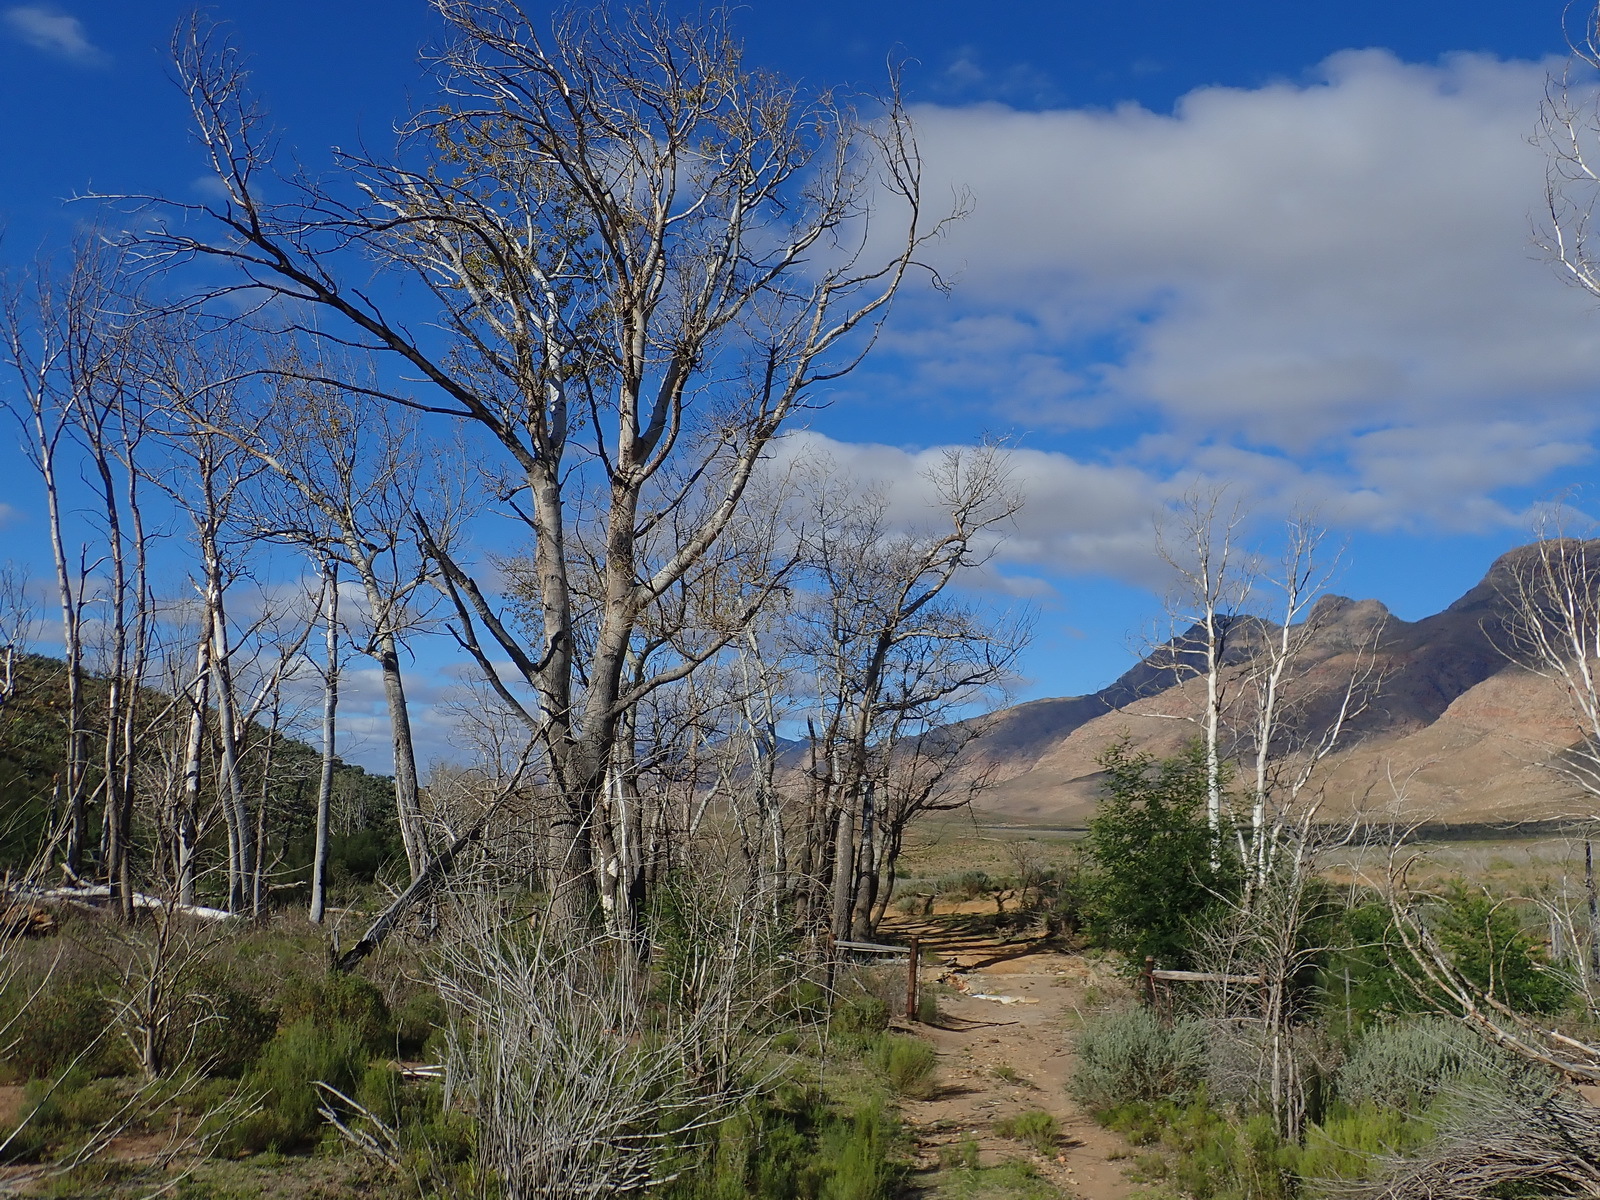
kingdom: Plantae
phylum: Tracheophyta
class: Magnoliopsida
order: Malpighiales
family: Salicaceae
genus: Populus
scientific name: Populus canescens
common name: Gray poplar
